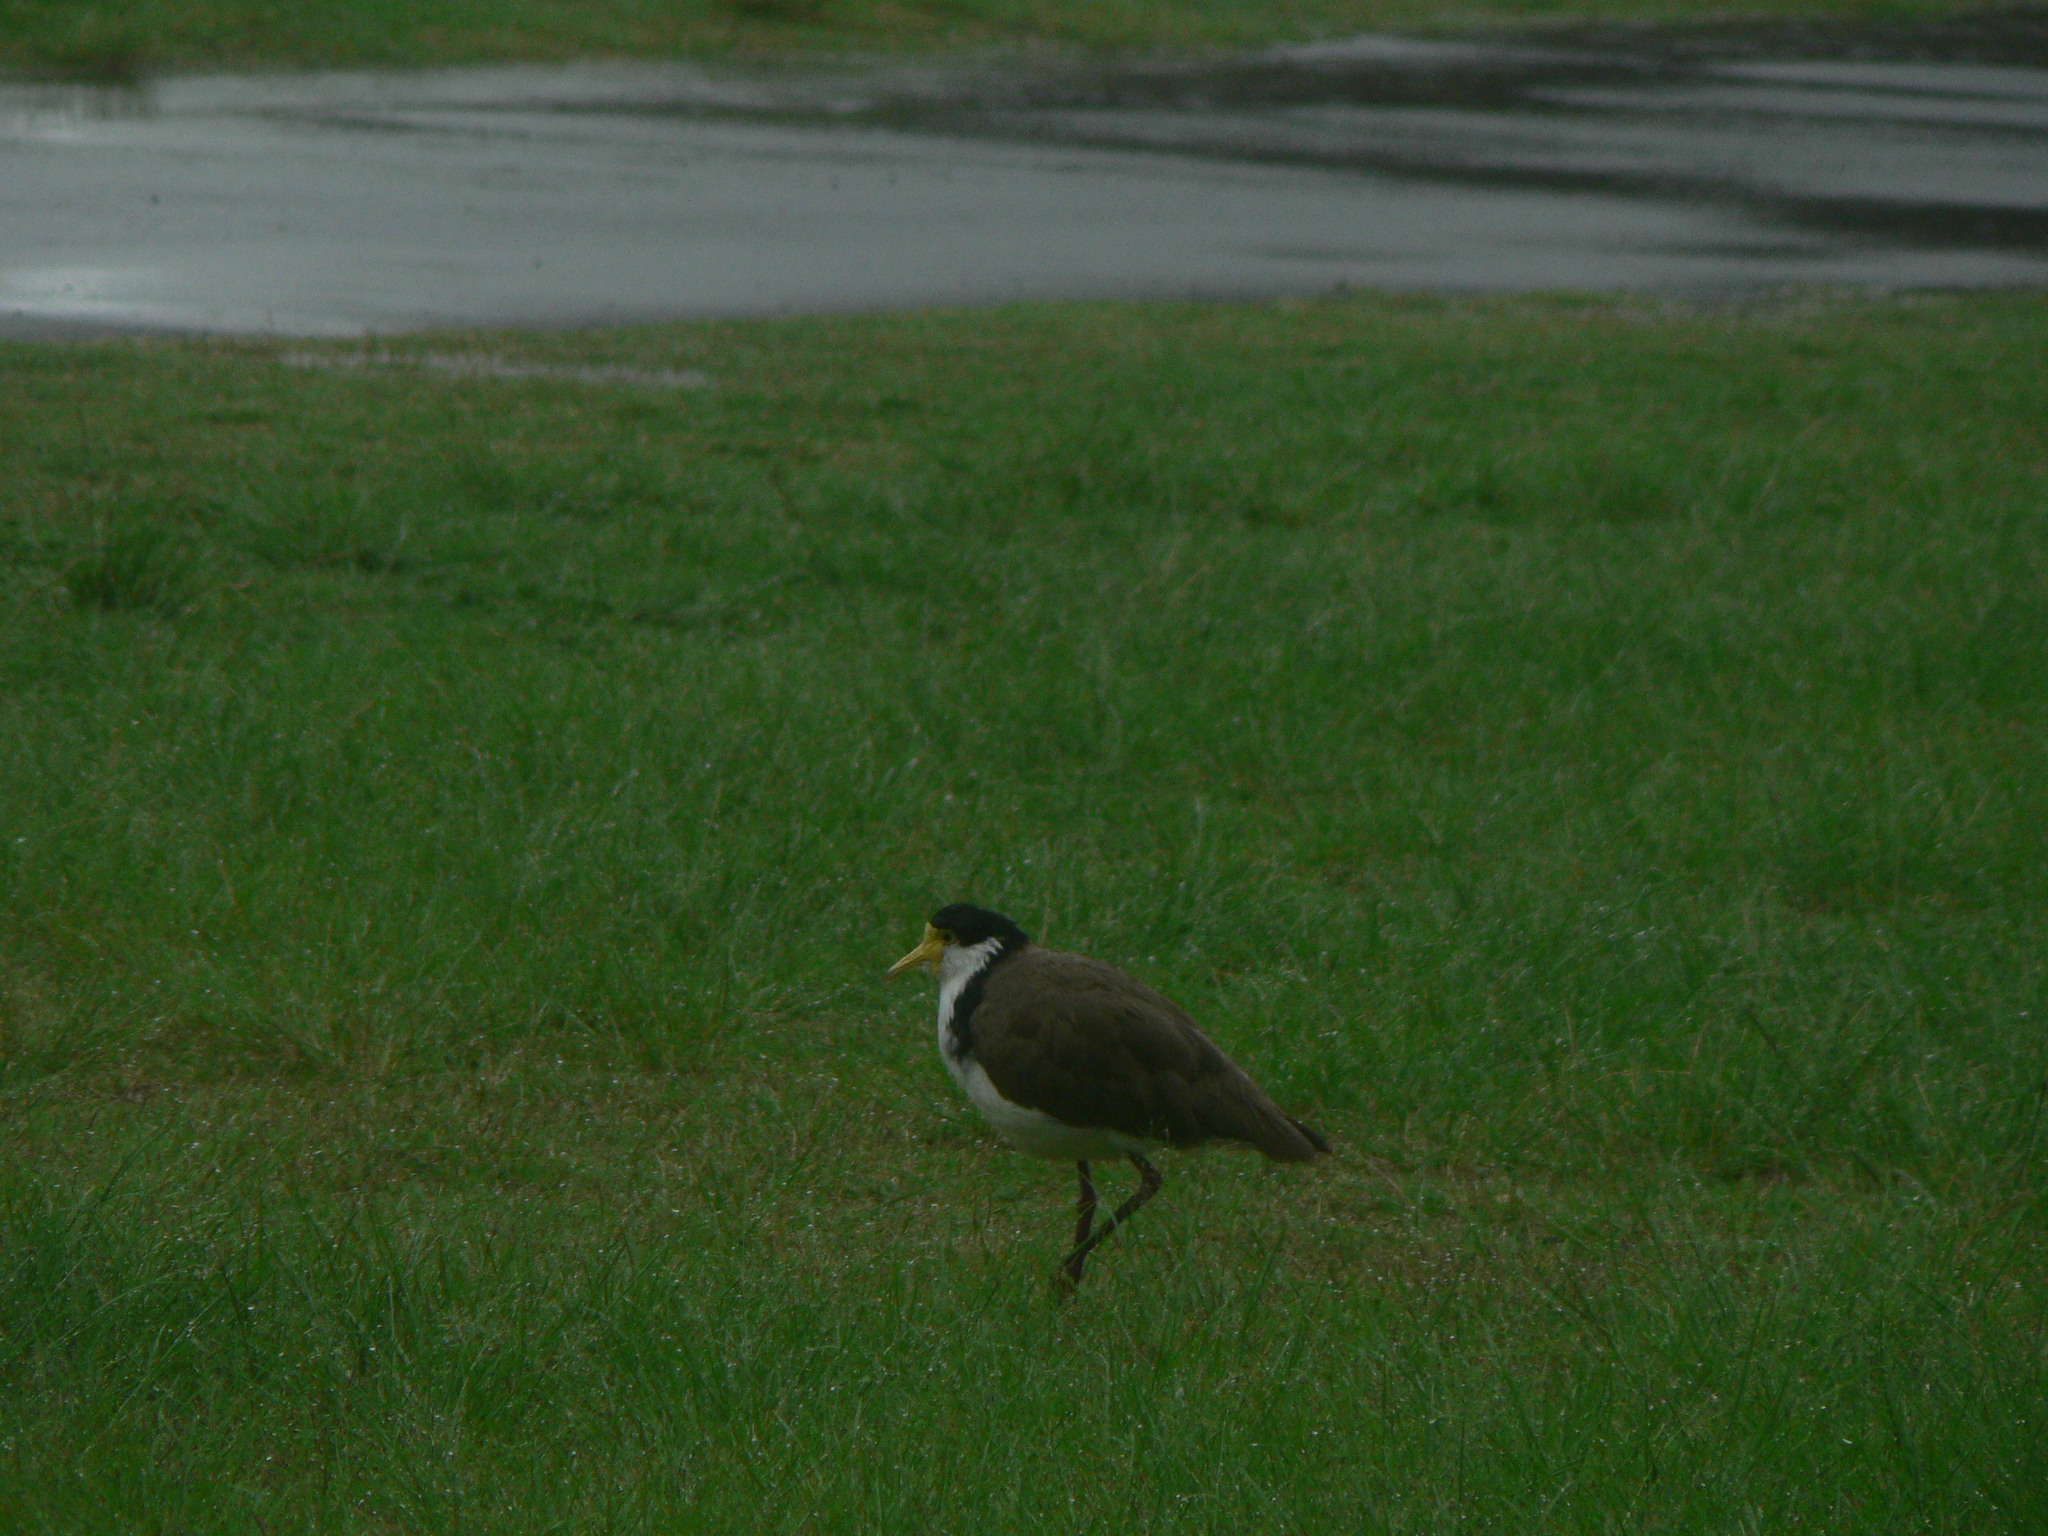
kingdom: Animalia
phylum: Chordata
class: Aves
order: Charadriiformes
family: Charadriidae
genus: Vanellus
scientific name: Vanellus miles
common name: Masked lapwing
